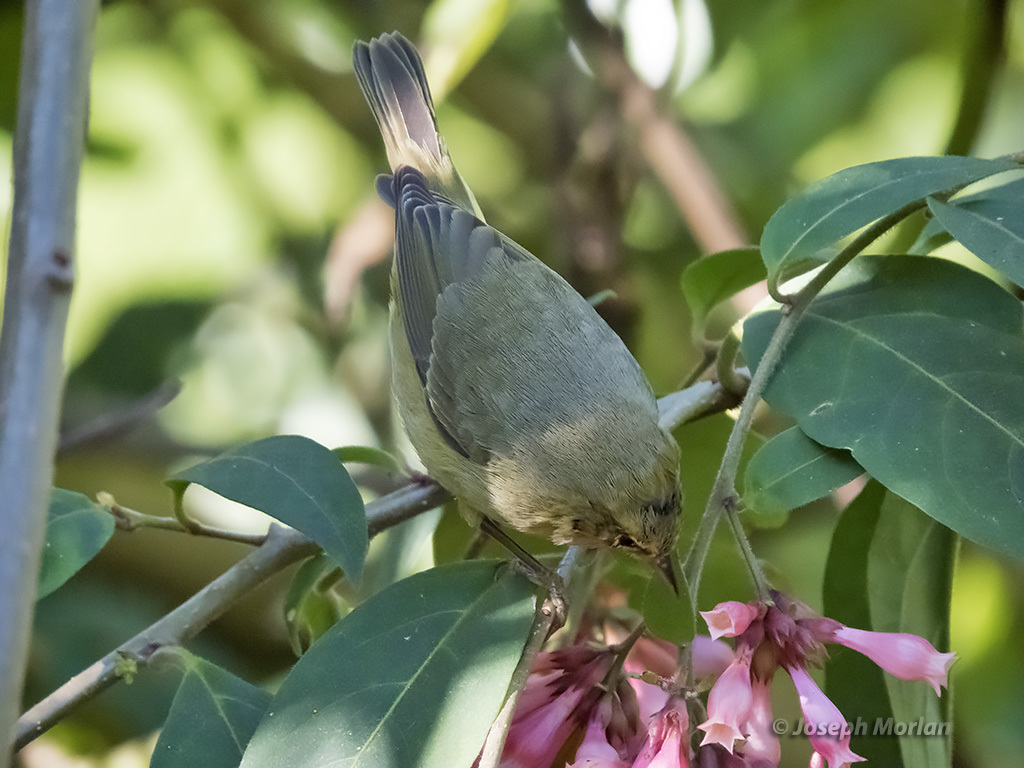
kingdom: Animalia
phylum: Chordata
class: Aves
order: Passeriformes
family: Parulidae
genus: Leiothlypis
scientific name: Leiothlypis celata
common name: Orange-crowned warbler
